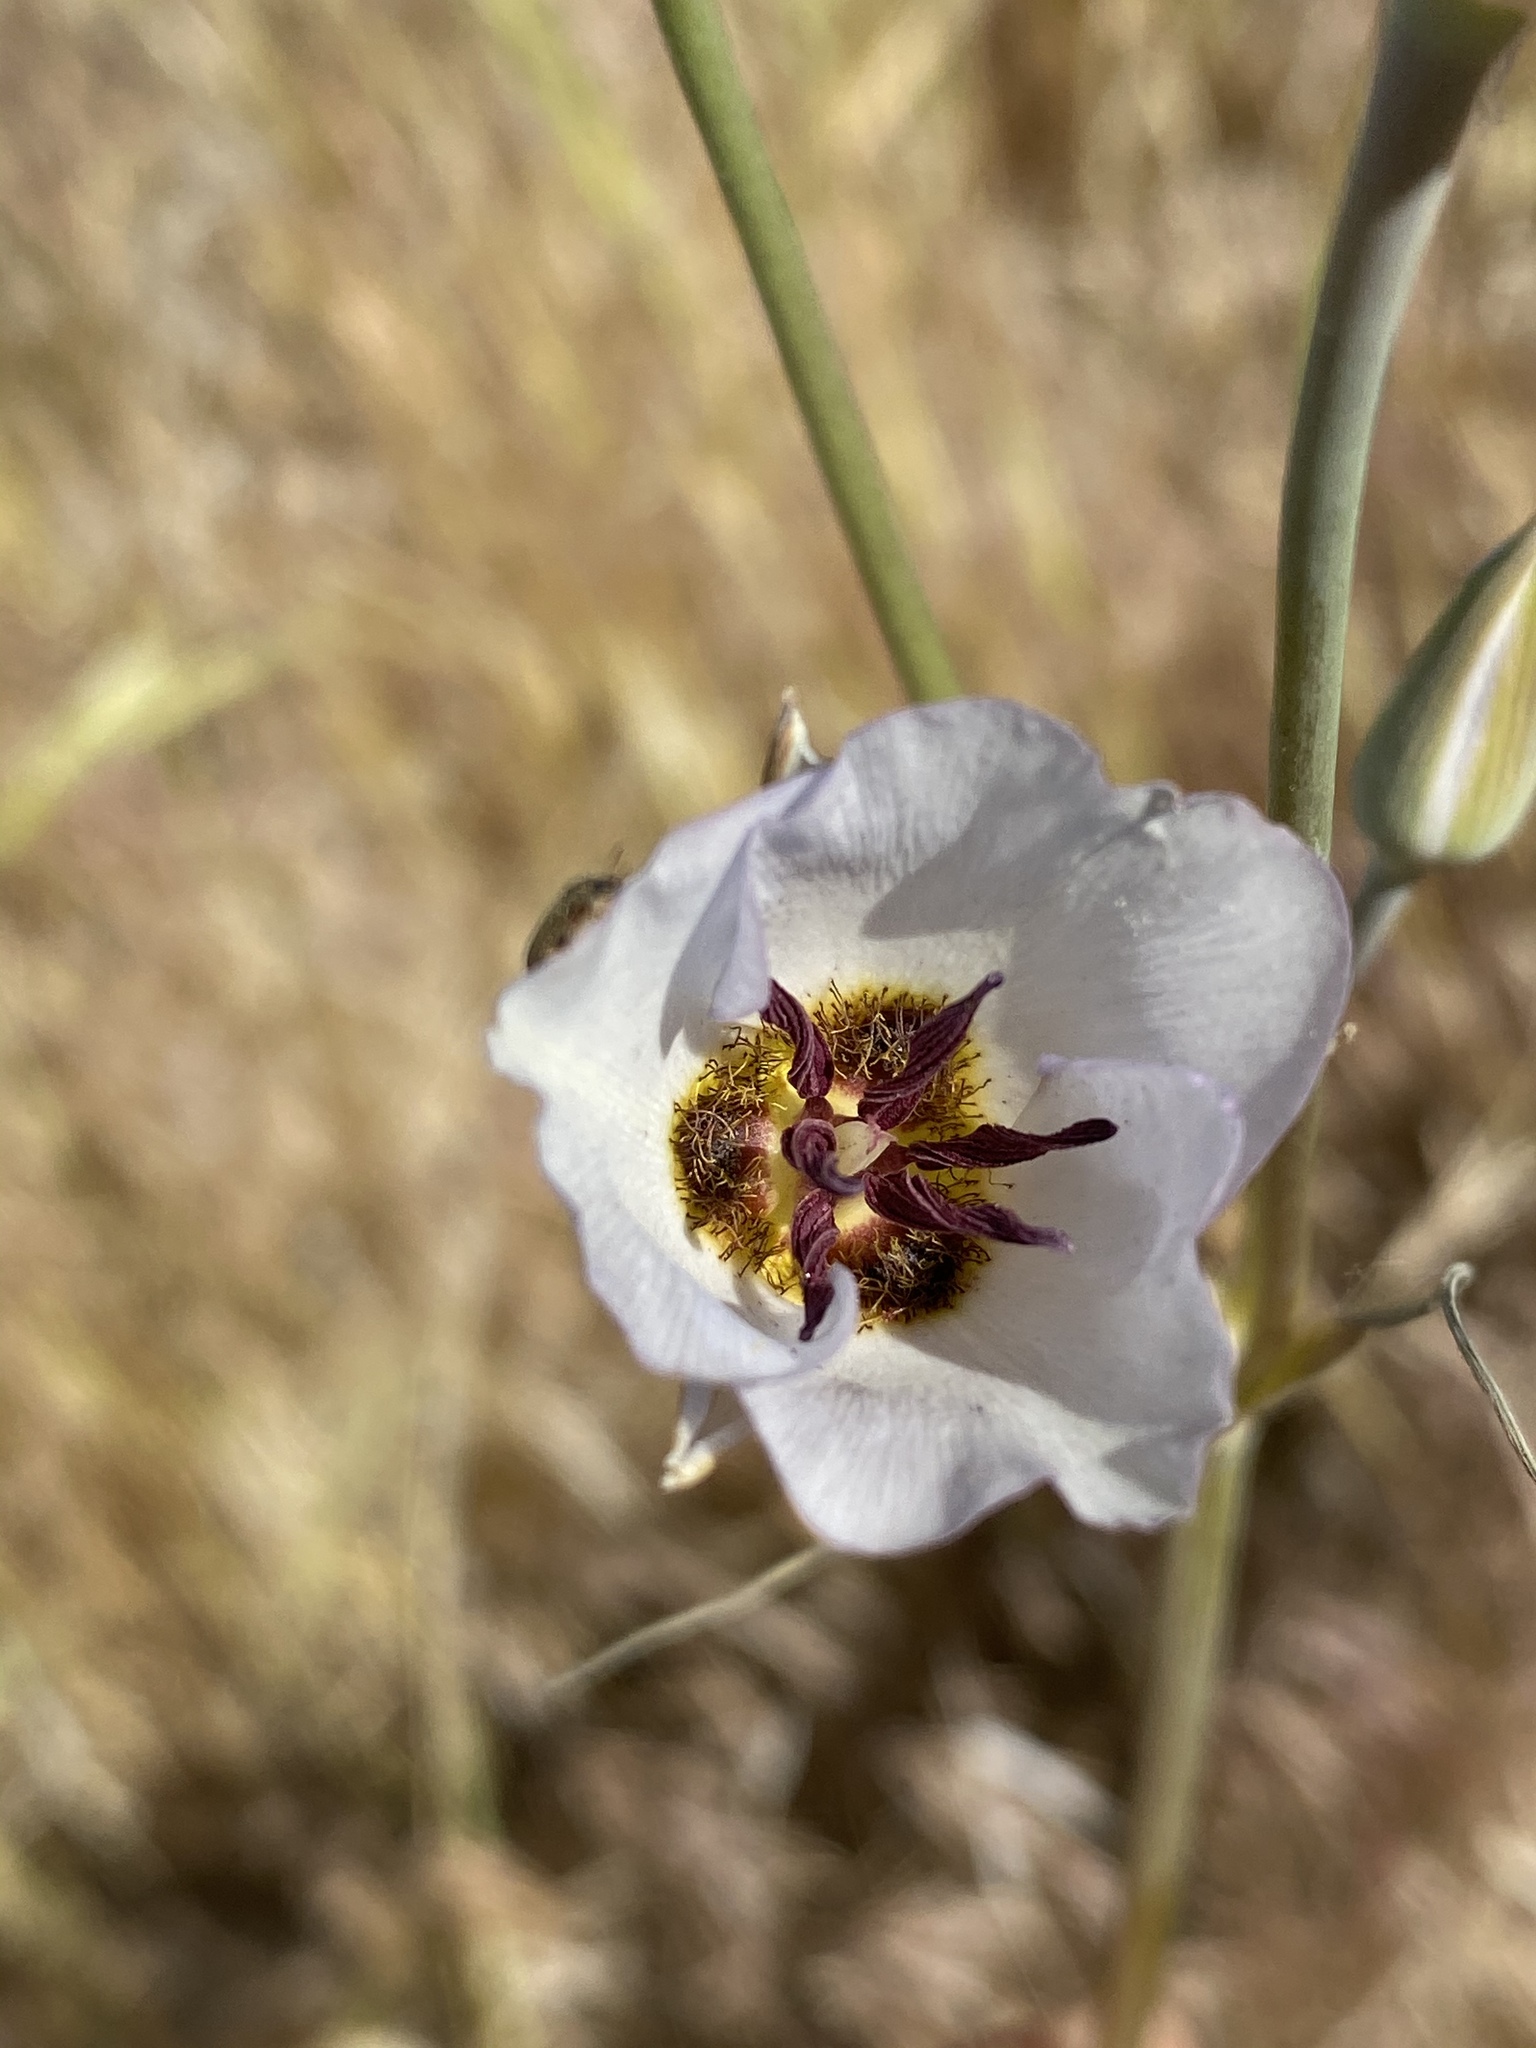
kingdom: Plantae
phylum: Tracheophyta
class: Liliopsida
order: Liliales
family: Liliaceae
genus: Calochortus
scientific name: Calochortus excavatus
